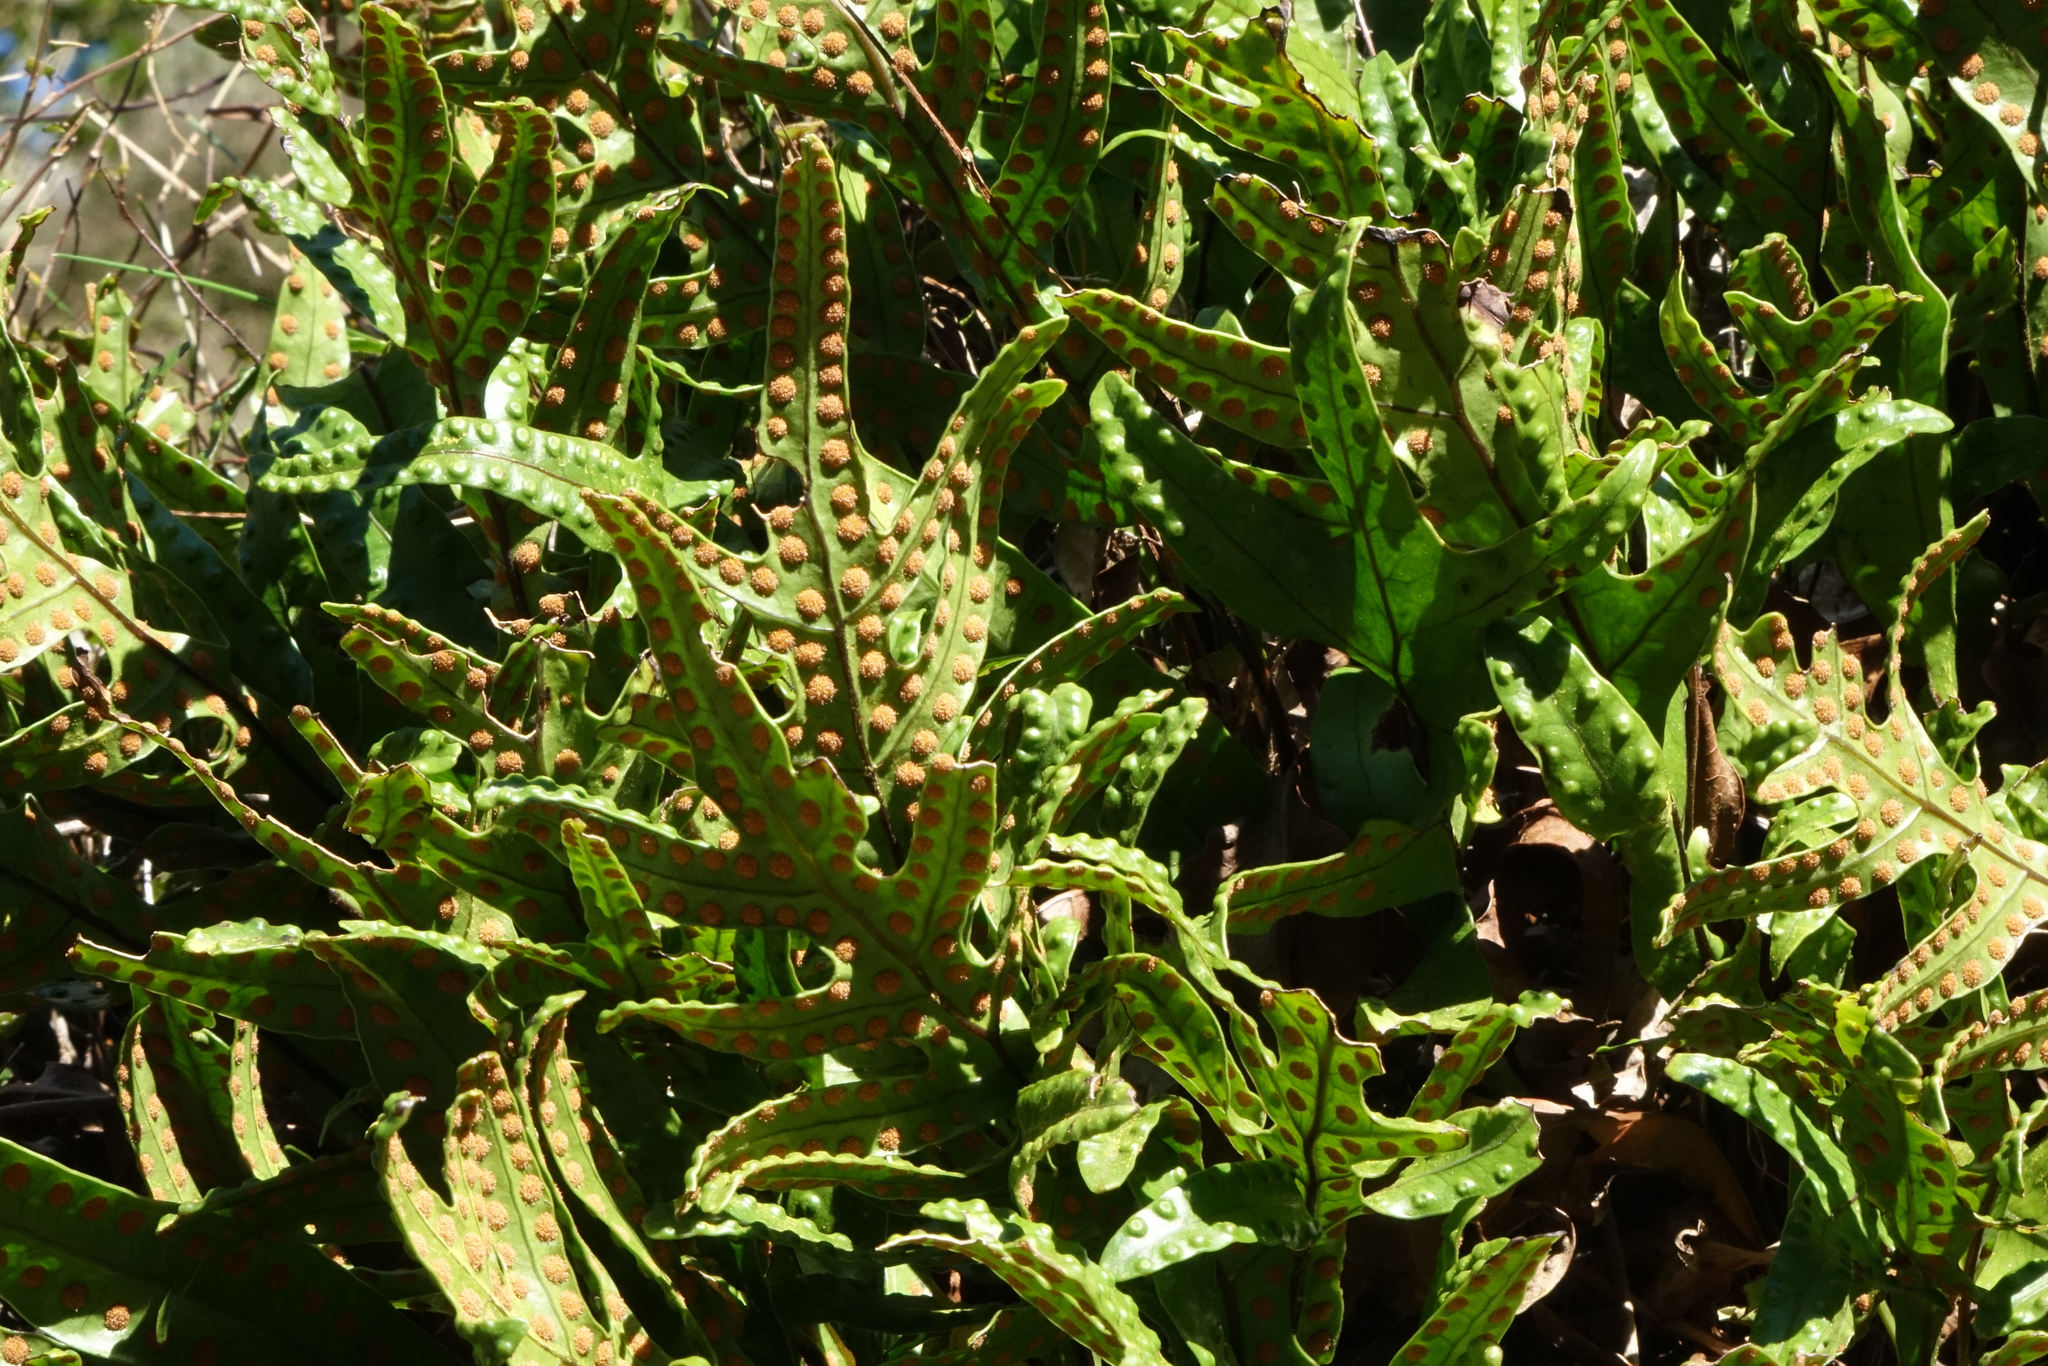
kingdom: Plantae
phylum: Tracheophyta
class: Polypodiopsida
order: Polypodiales
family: Polypodiaceae
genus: Lecanopteris
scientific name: Lecanopteris pustulata
